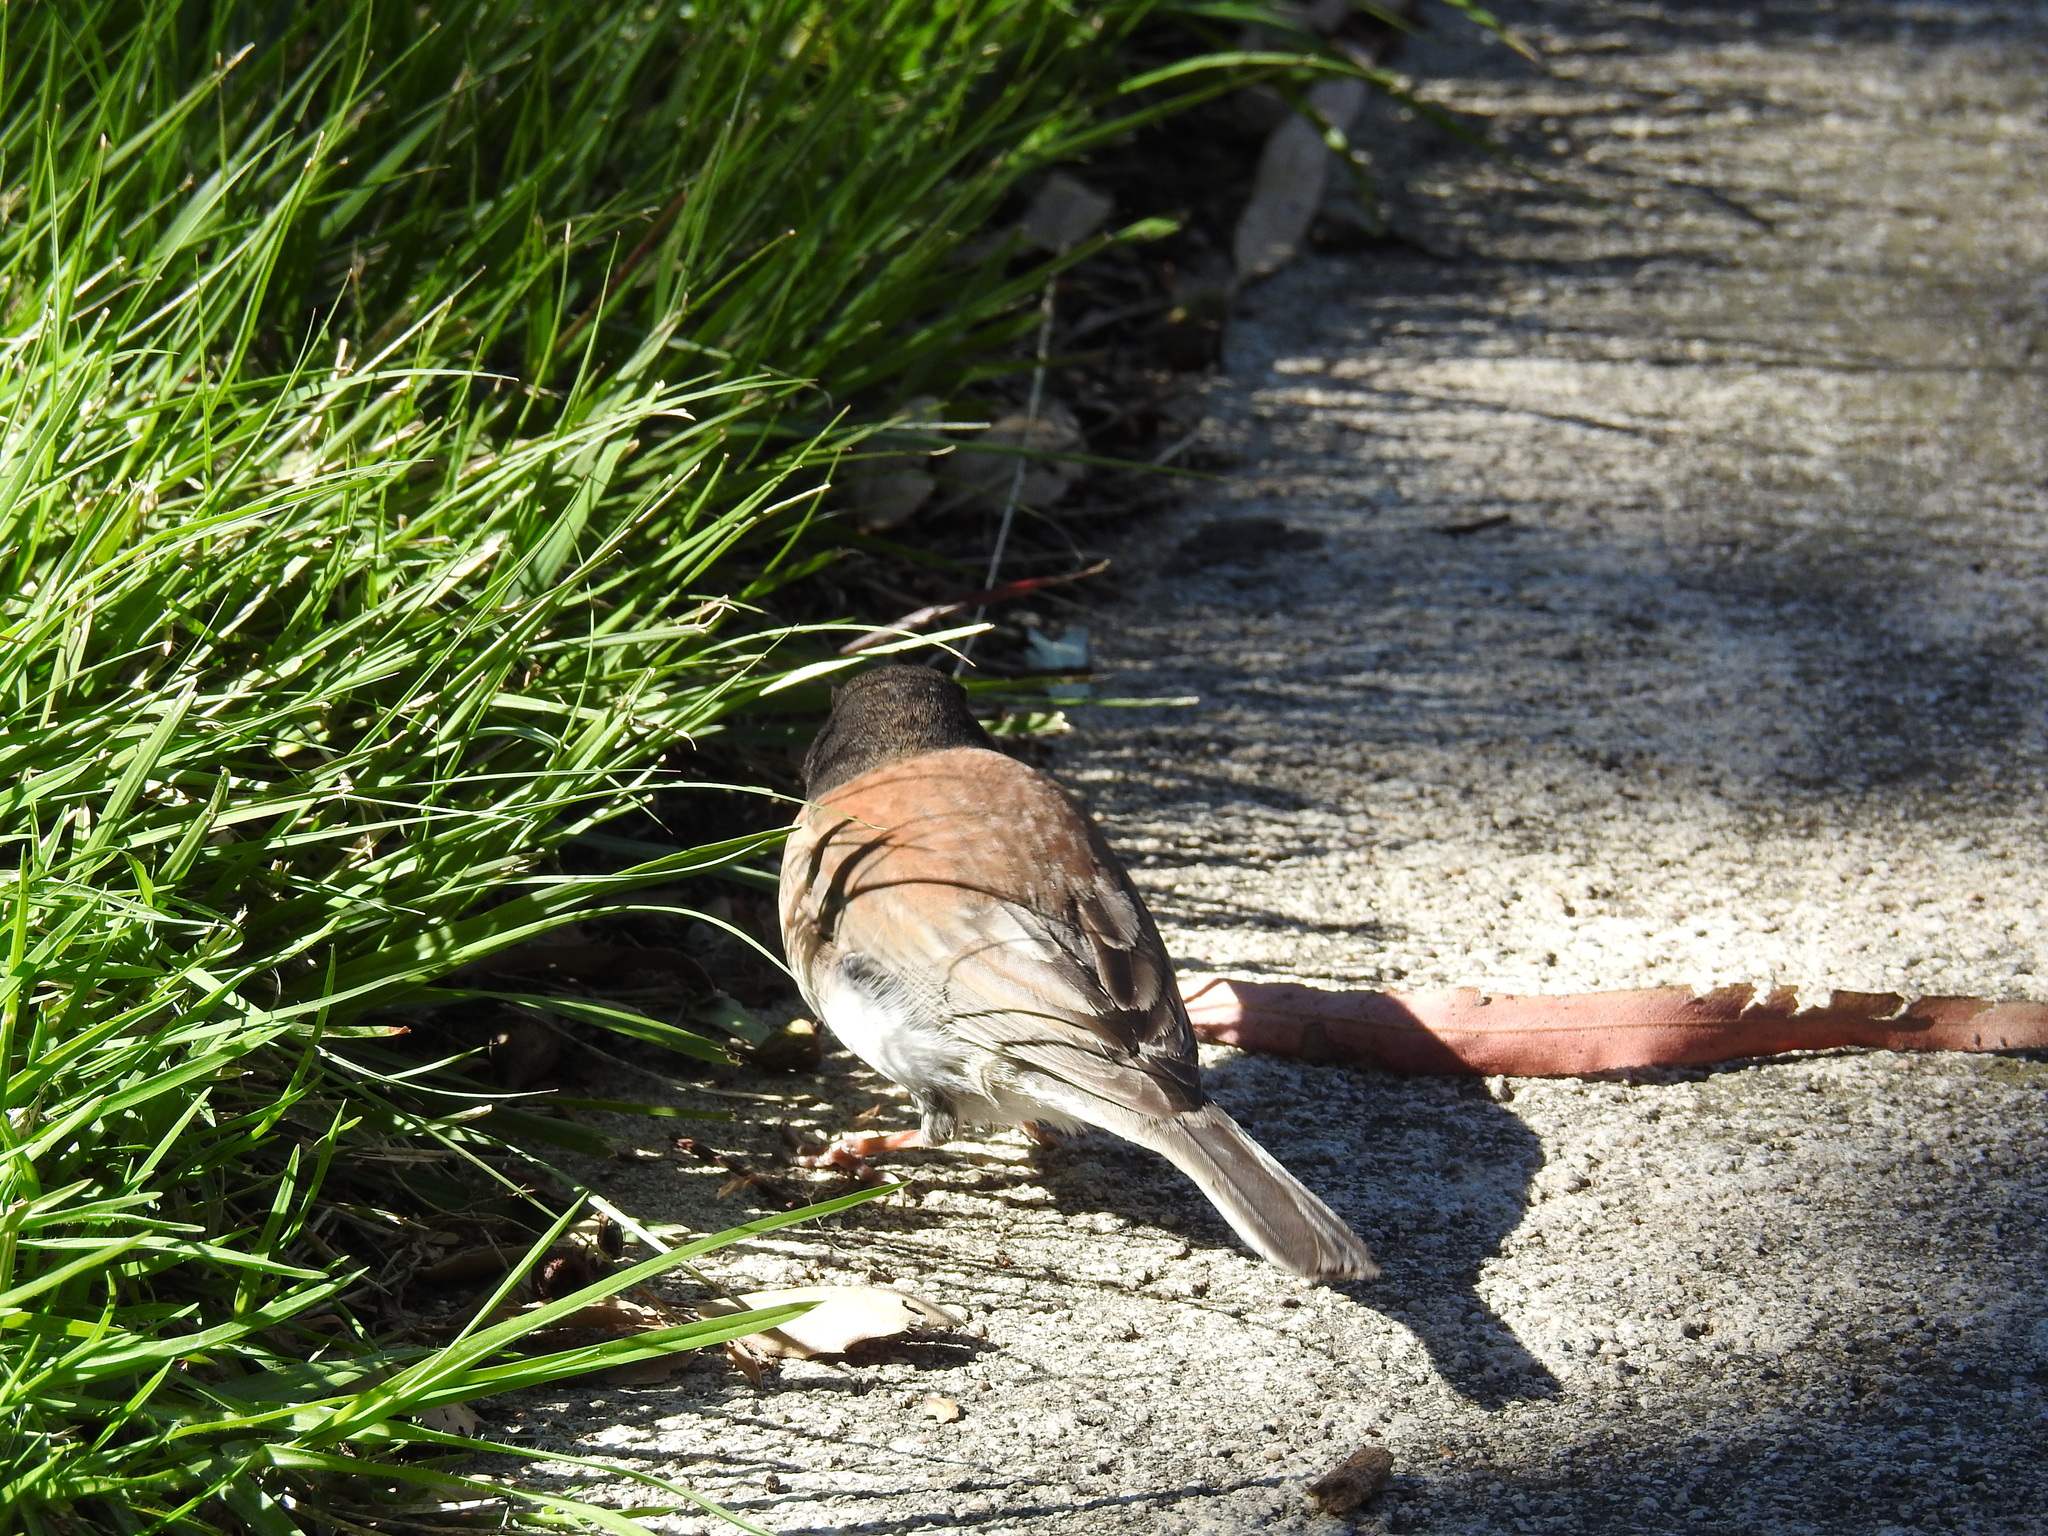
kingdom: Animalia
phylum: Chordata
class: Aves
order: Passeriformes
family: Passerellidae
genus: Junco
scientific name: Junco hyemalis
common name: Dark-eyed junco
